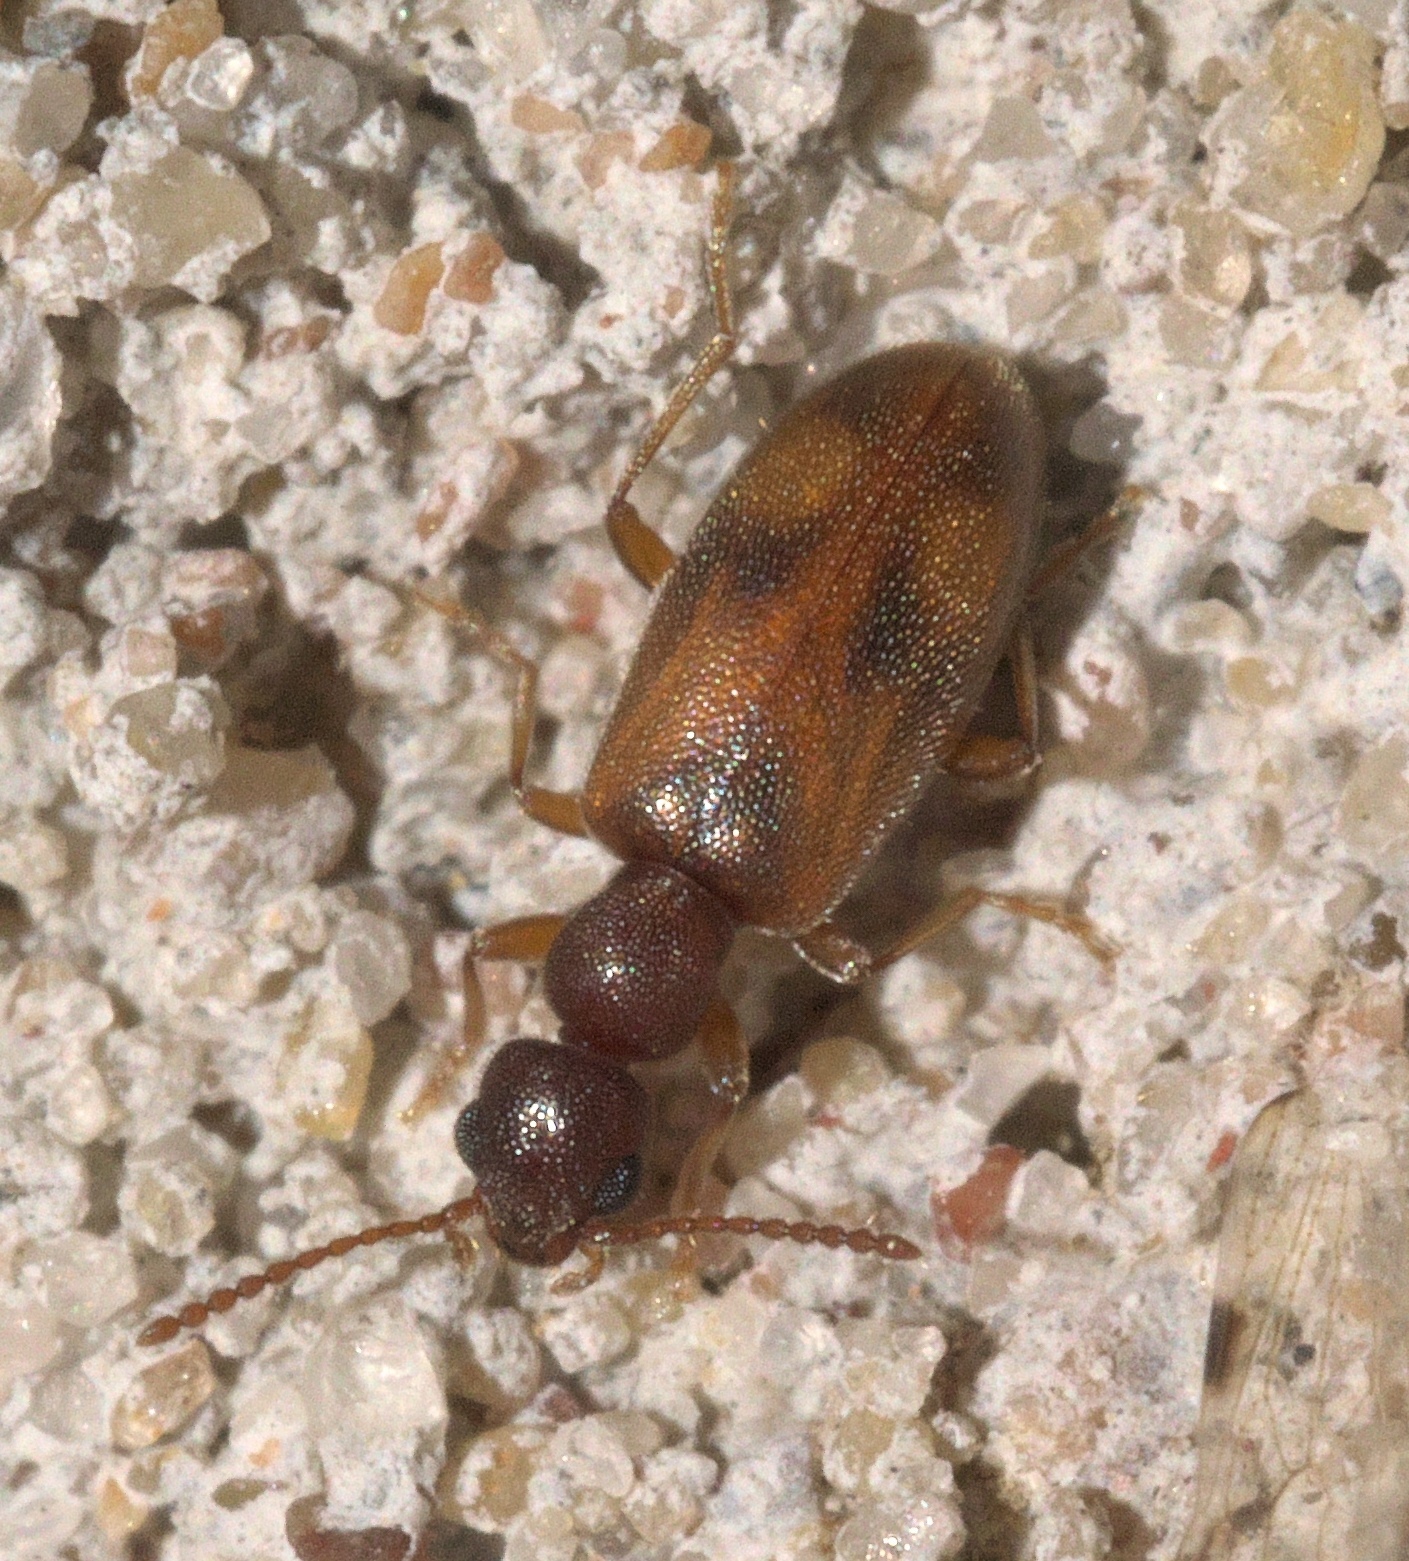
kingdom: Animalia
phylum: Arthropoda
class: Insecta
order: Coleoptera
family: Anthicidae
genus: Anthicus
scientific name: Anthicus cervinus
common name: Cloudy flower beetle
